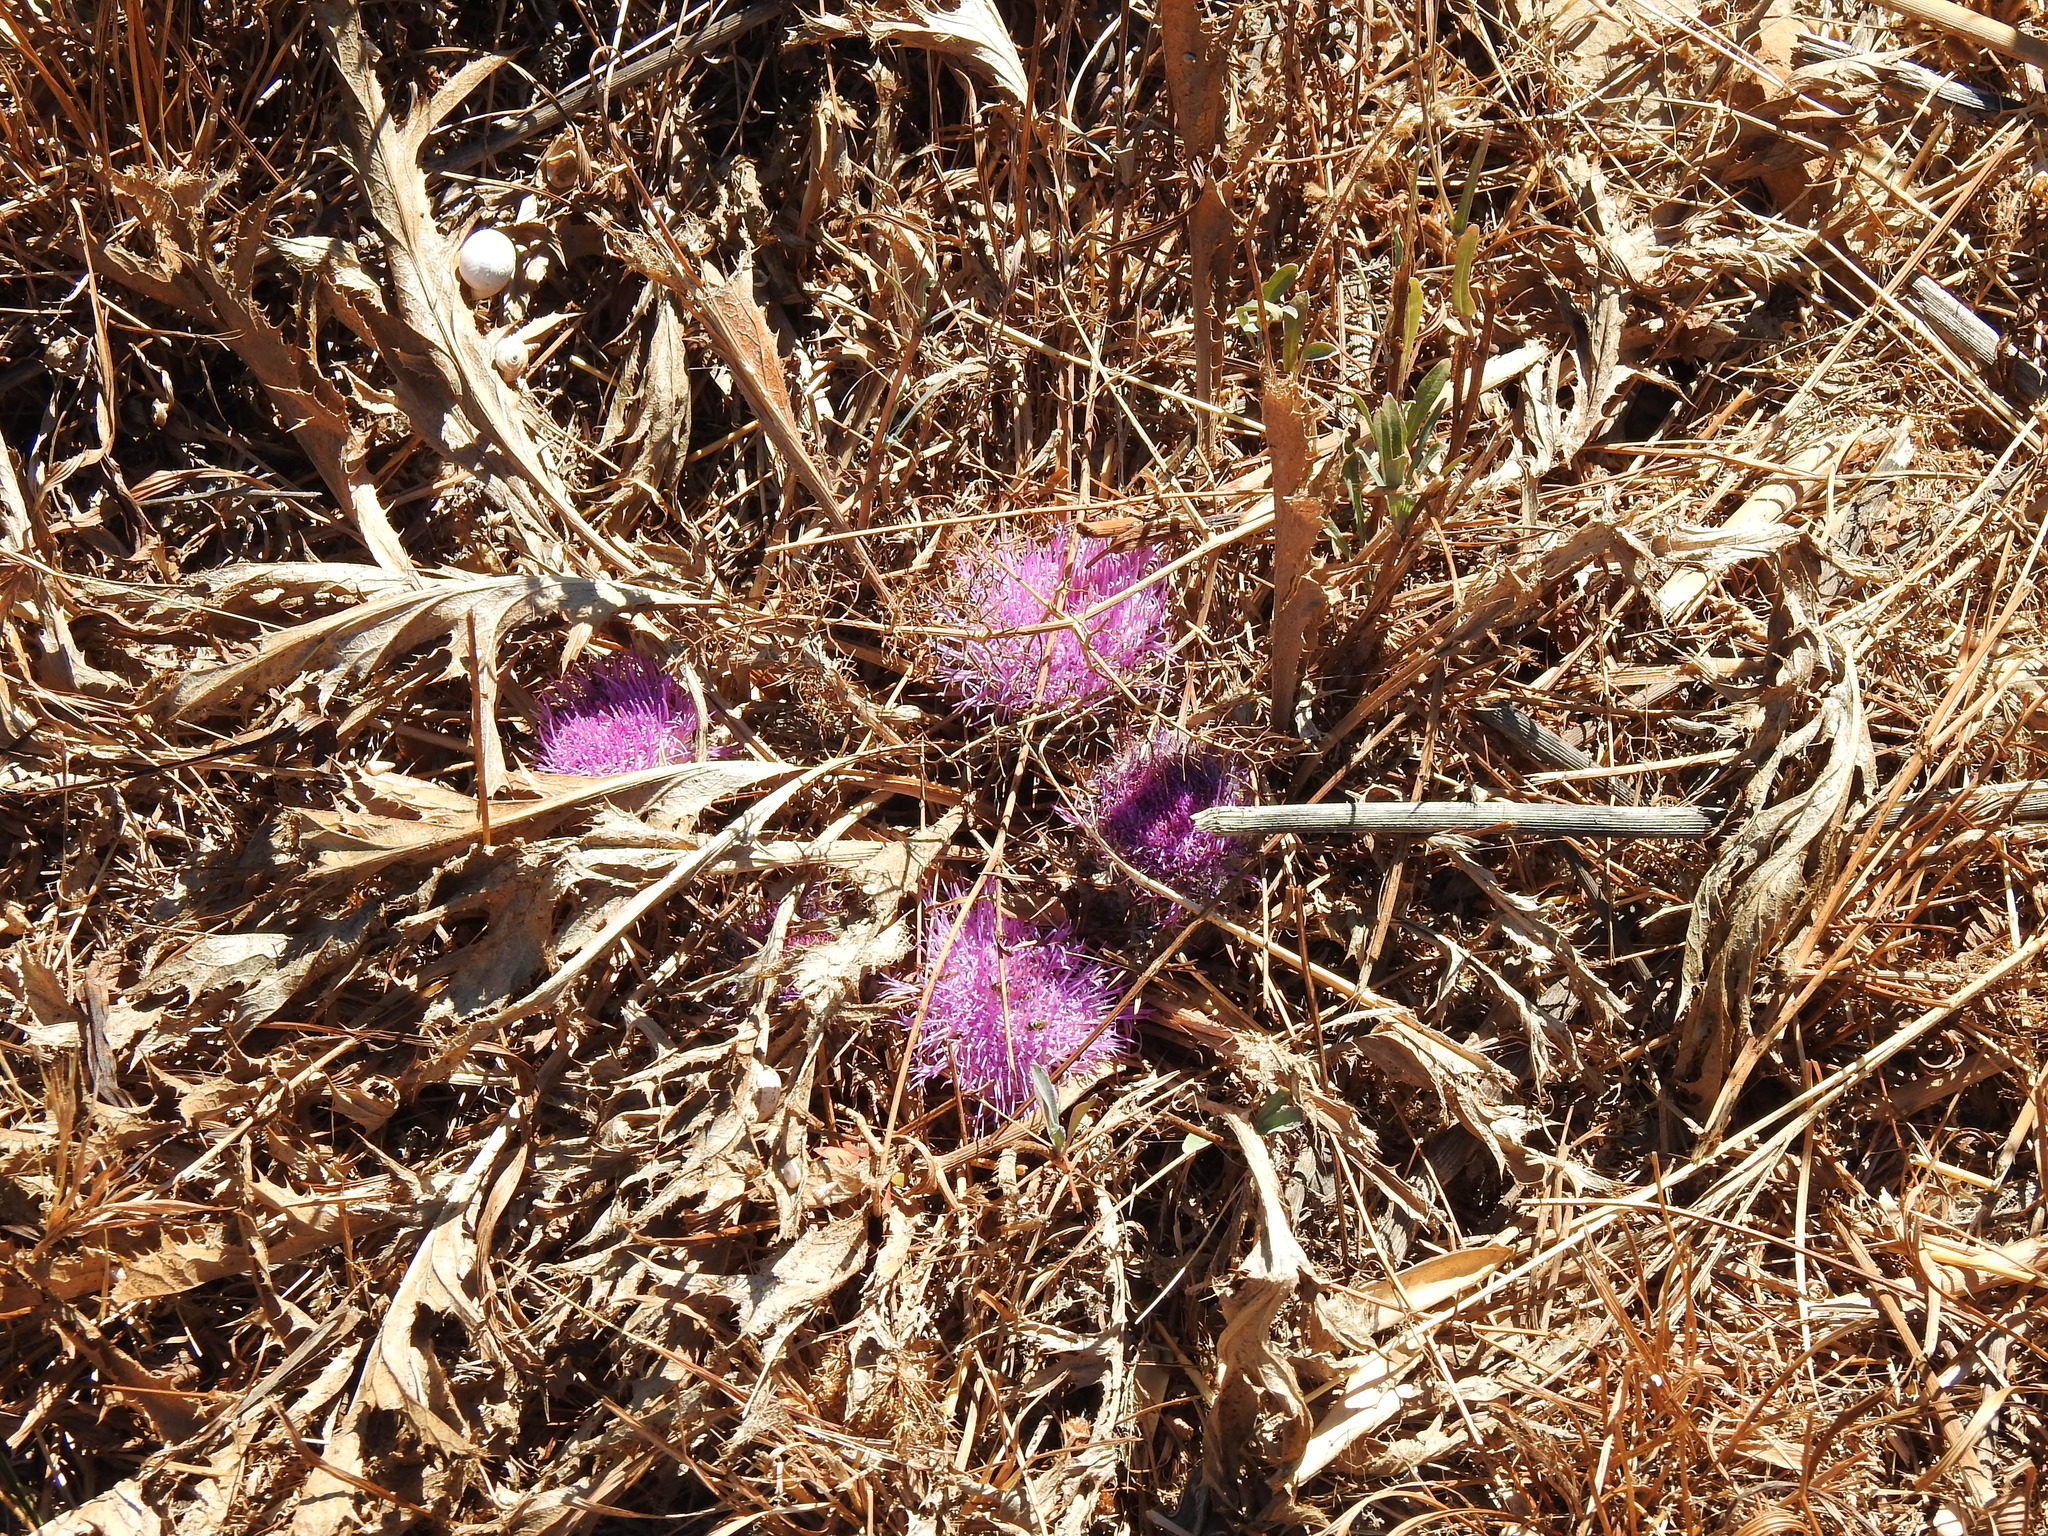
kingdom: Plantae
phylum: Tracheophyta
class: Magnoliopsida
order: Asterales
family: Asteraceae
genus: Chamaeleon
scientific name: Chamaeleon gummifer
